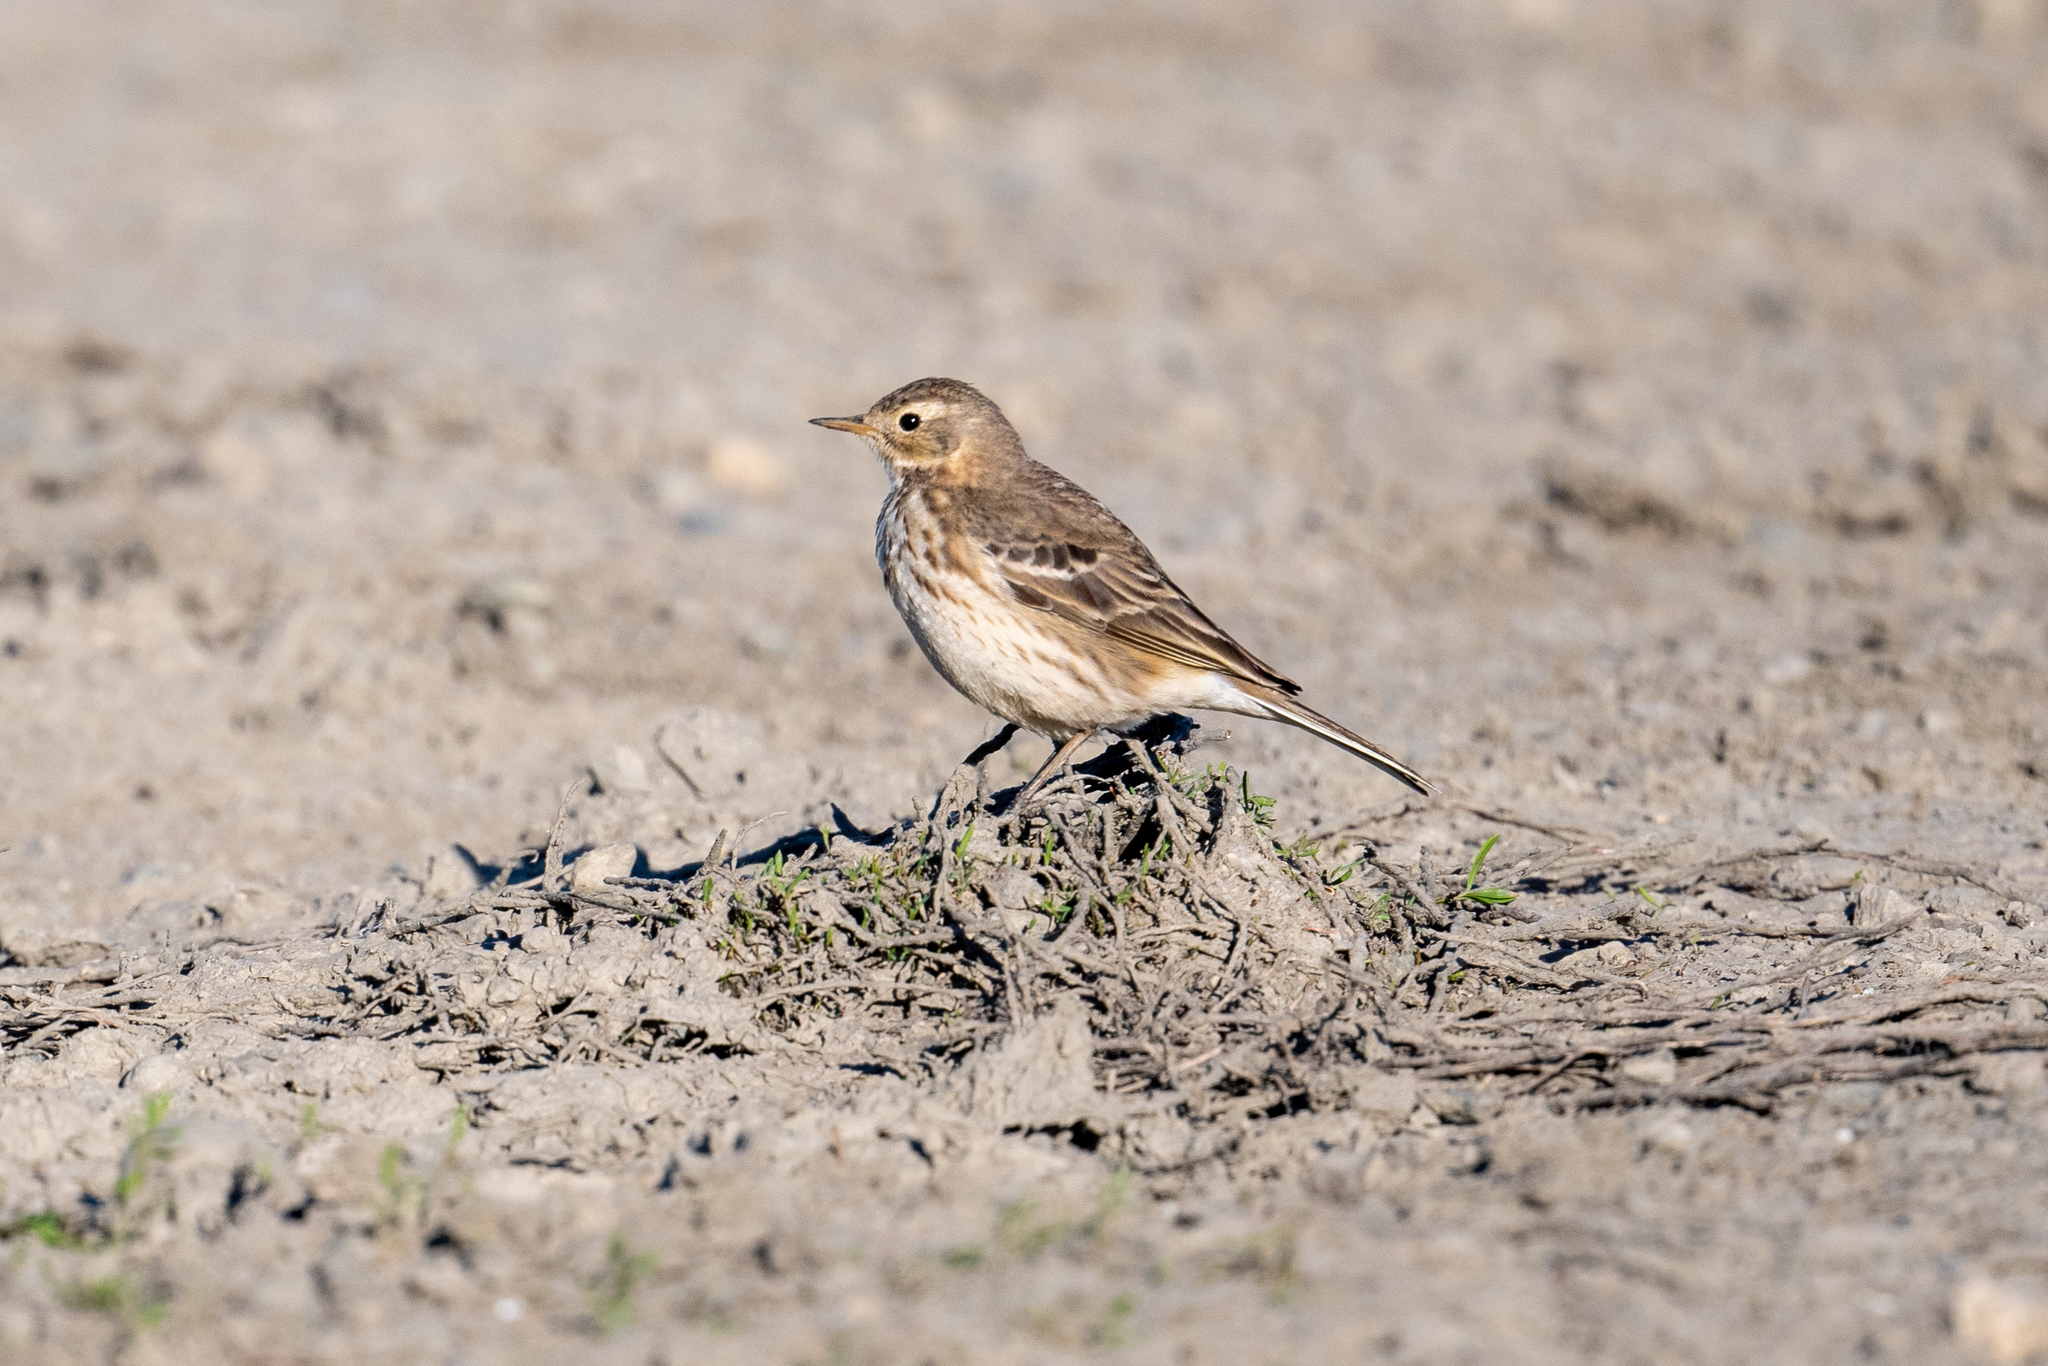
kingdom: Animalia
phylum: Chordata
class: Aves
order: Passeriformes
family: Motacillidae
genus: Anthus
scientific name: Anthus rubescens
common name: Buff-bellied pipit
